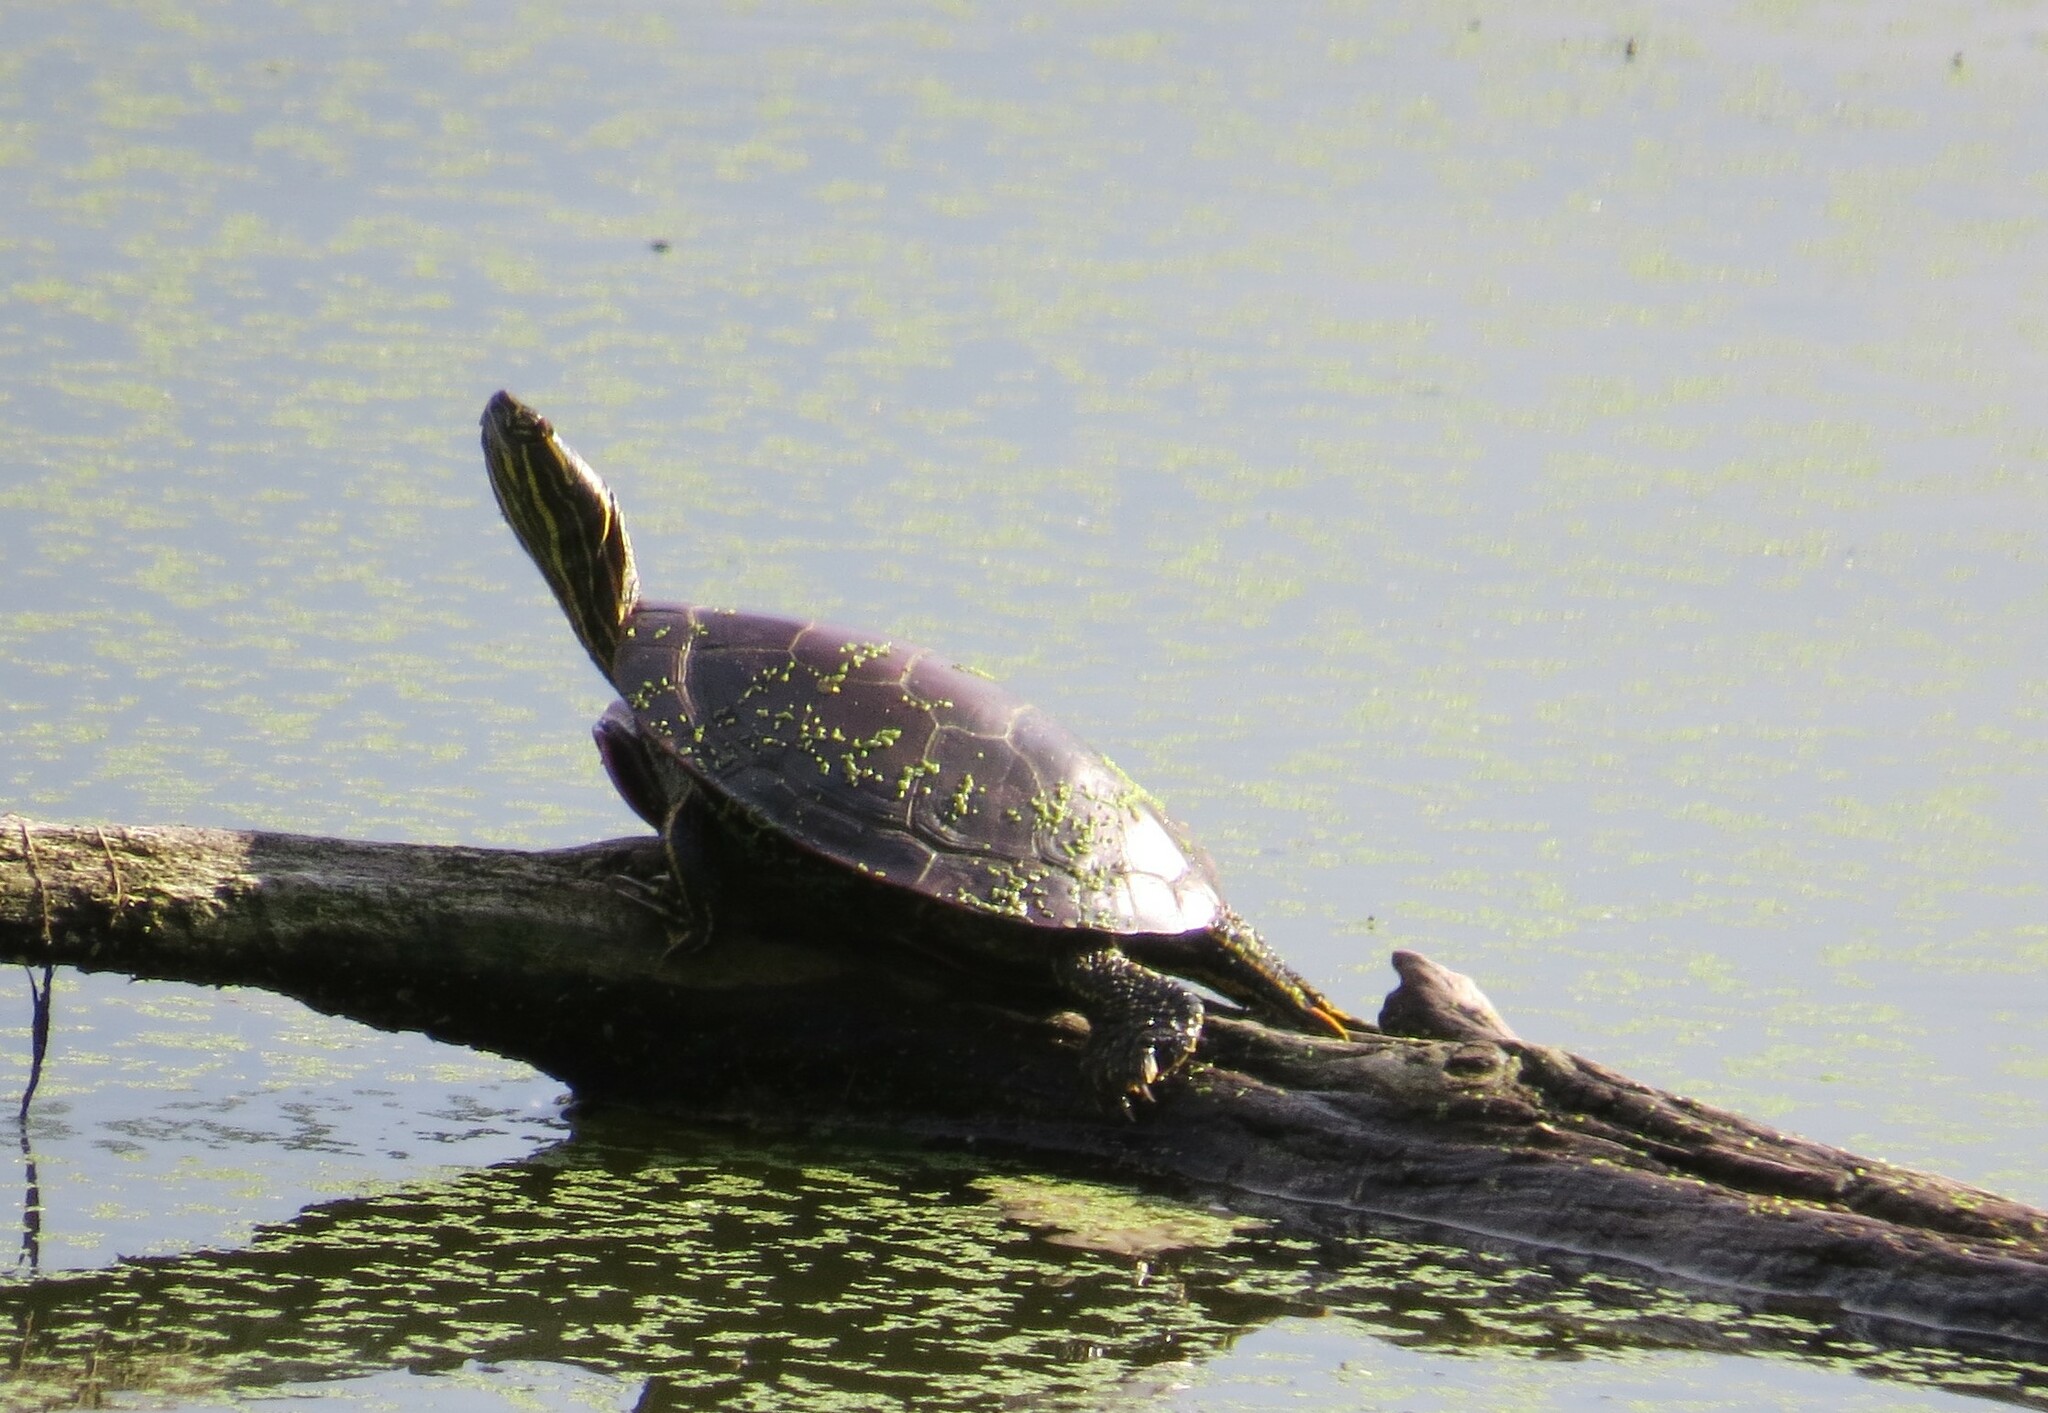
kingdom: Animalia
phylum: Chordata
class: Testudines
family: Emydidae
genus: Chrysemys
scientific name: Chrysemys picta
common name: Painted turtle
